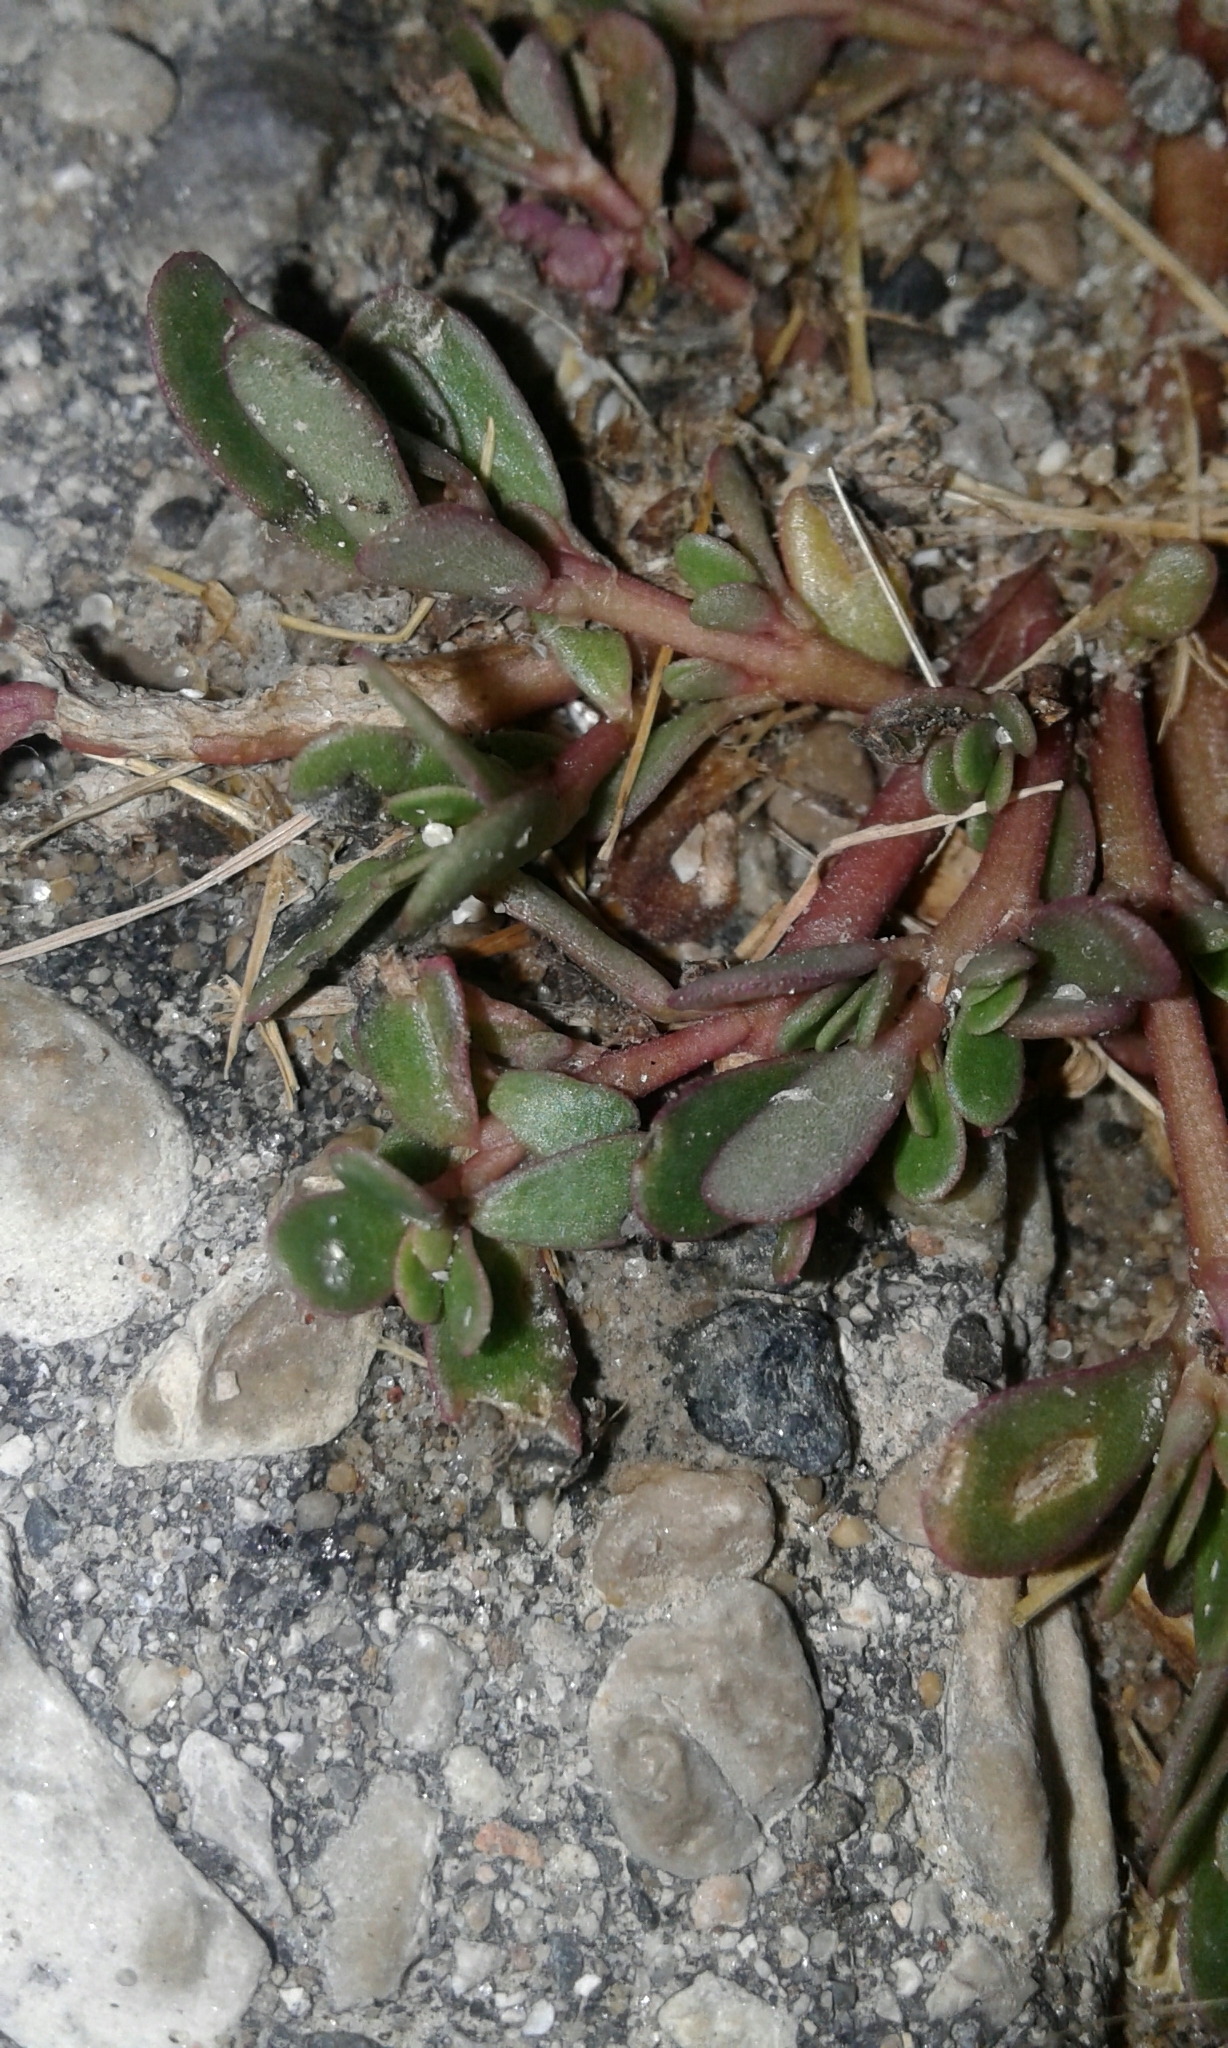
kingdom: Plantae
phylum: Tracheophyta
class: Magnoliopsida
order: Caryophyllales
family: Portulacaceae
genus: Portulaca
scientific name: Portulaca oleracea
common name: Common purslane
